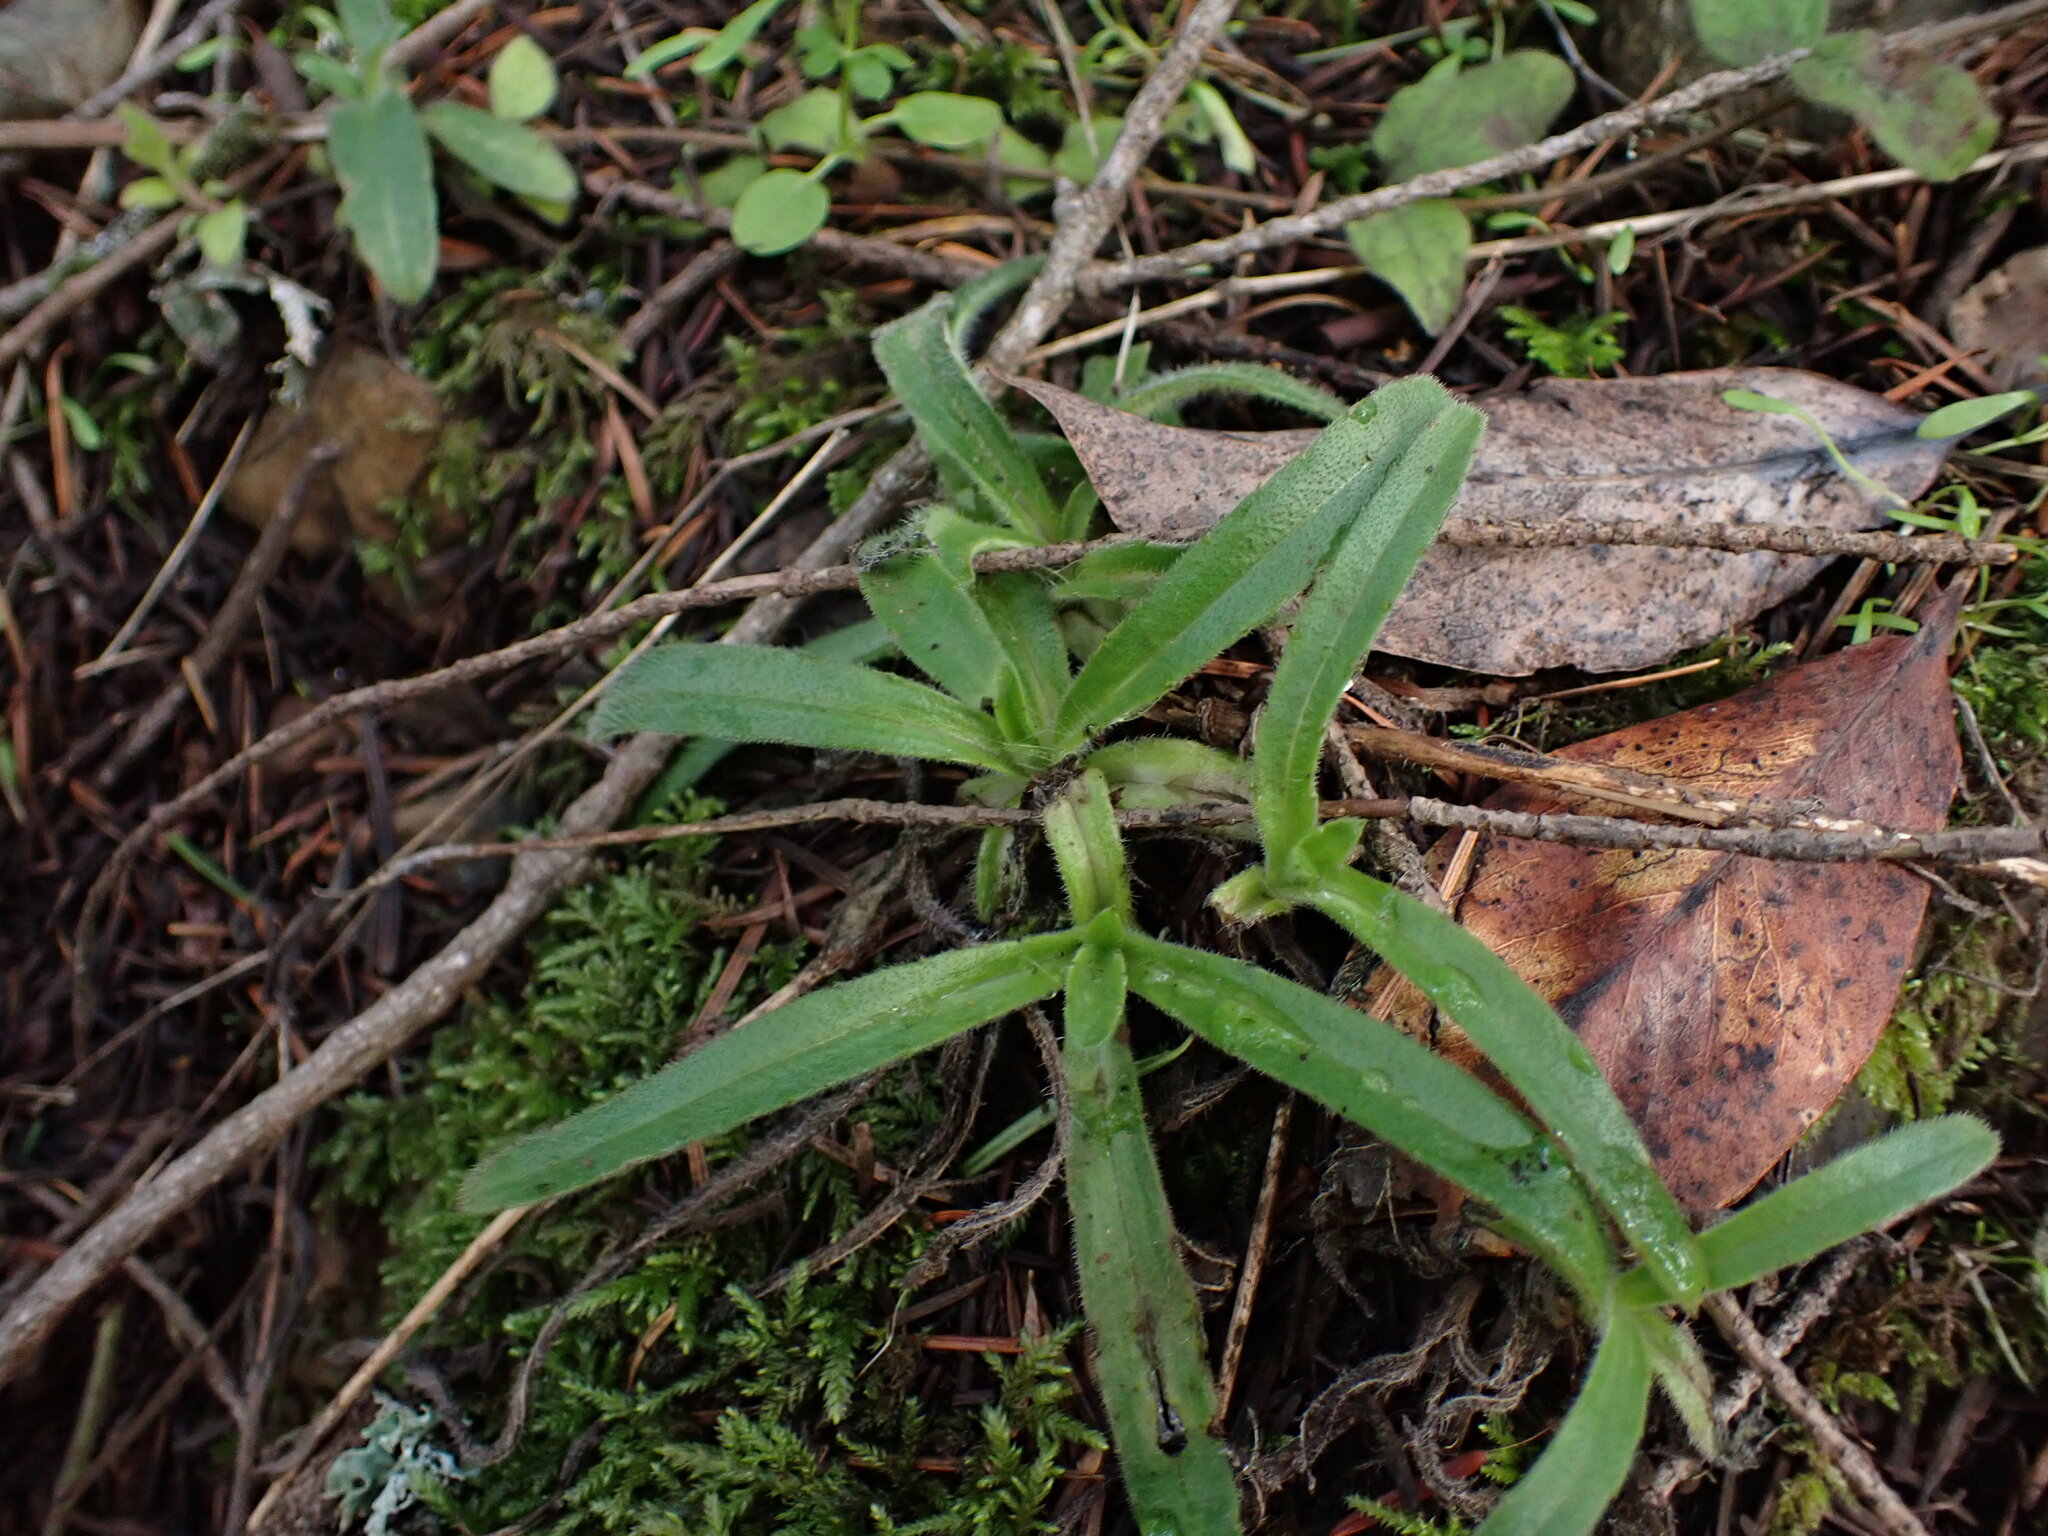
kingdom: Plantae
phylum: Tracheophyta
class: Magnoliopsida
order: Asterales
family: Asteraceae
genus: Anisocarpus
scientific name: Anisocarpus madioides
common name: Woodland madia
